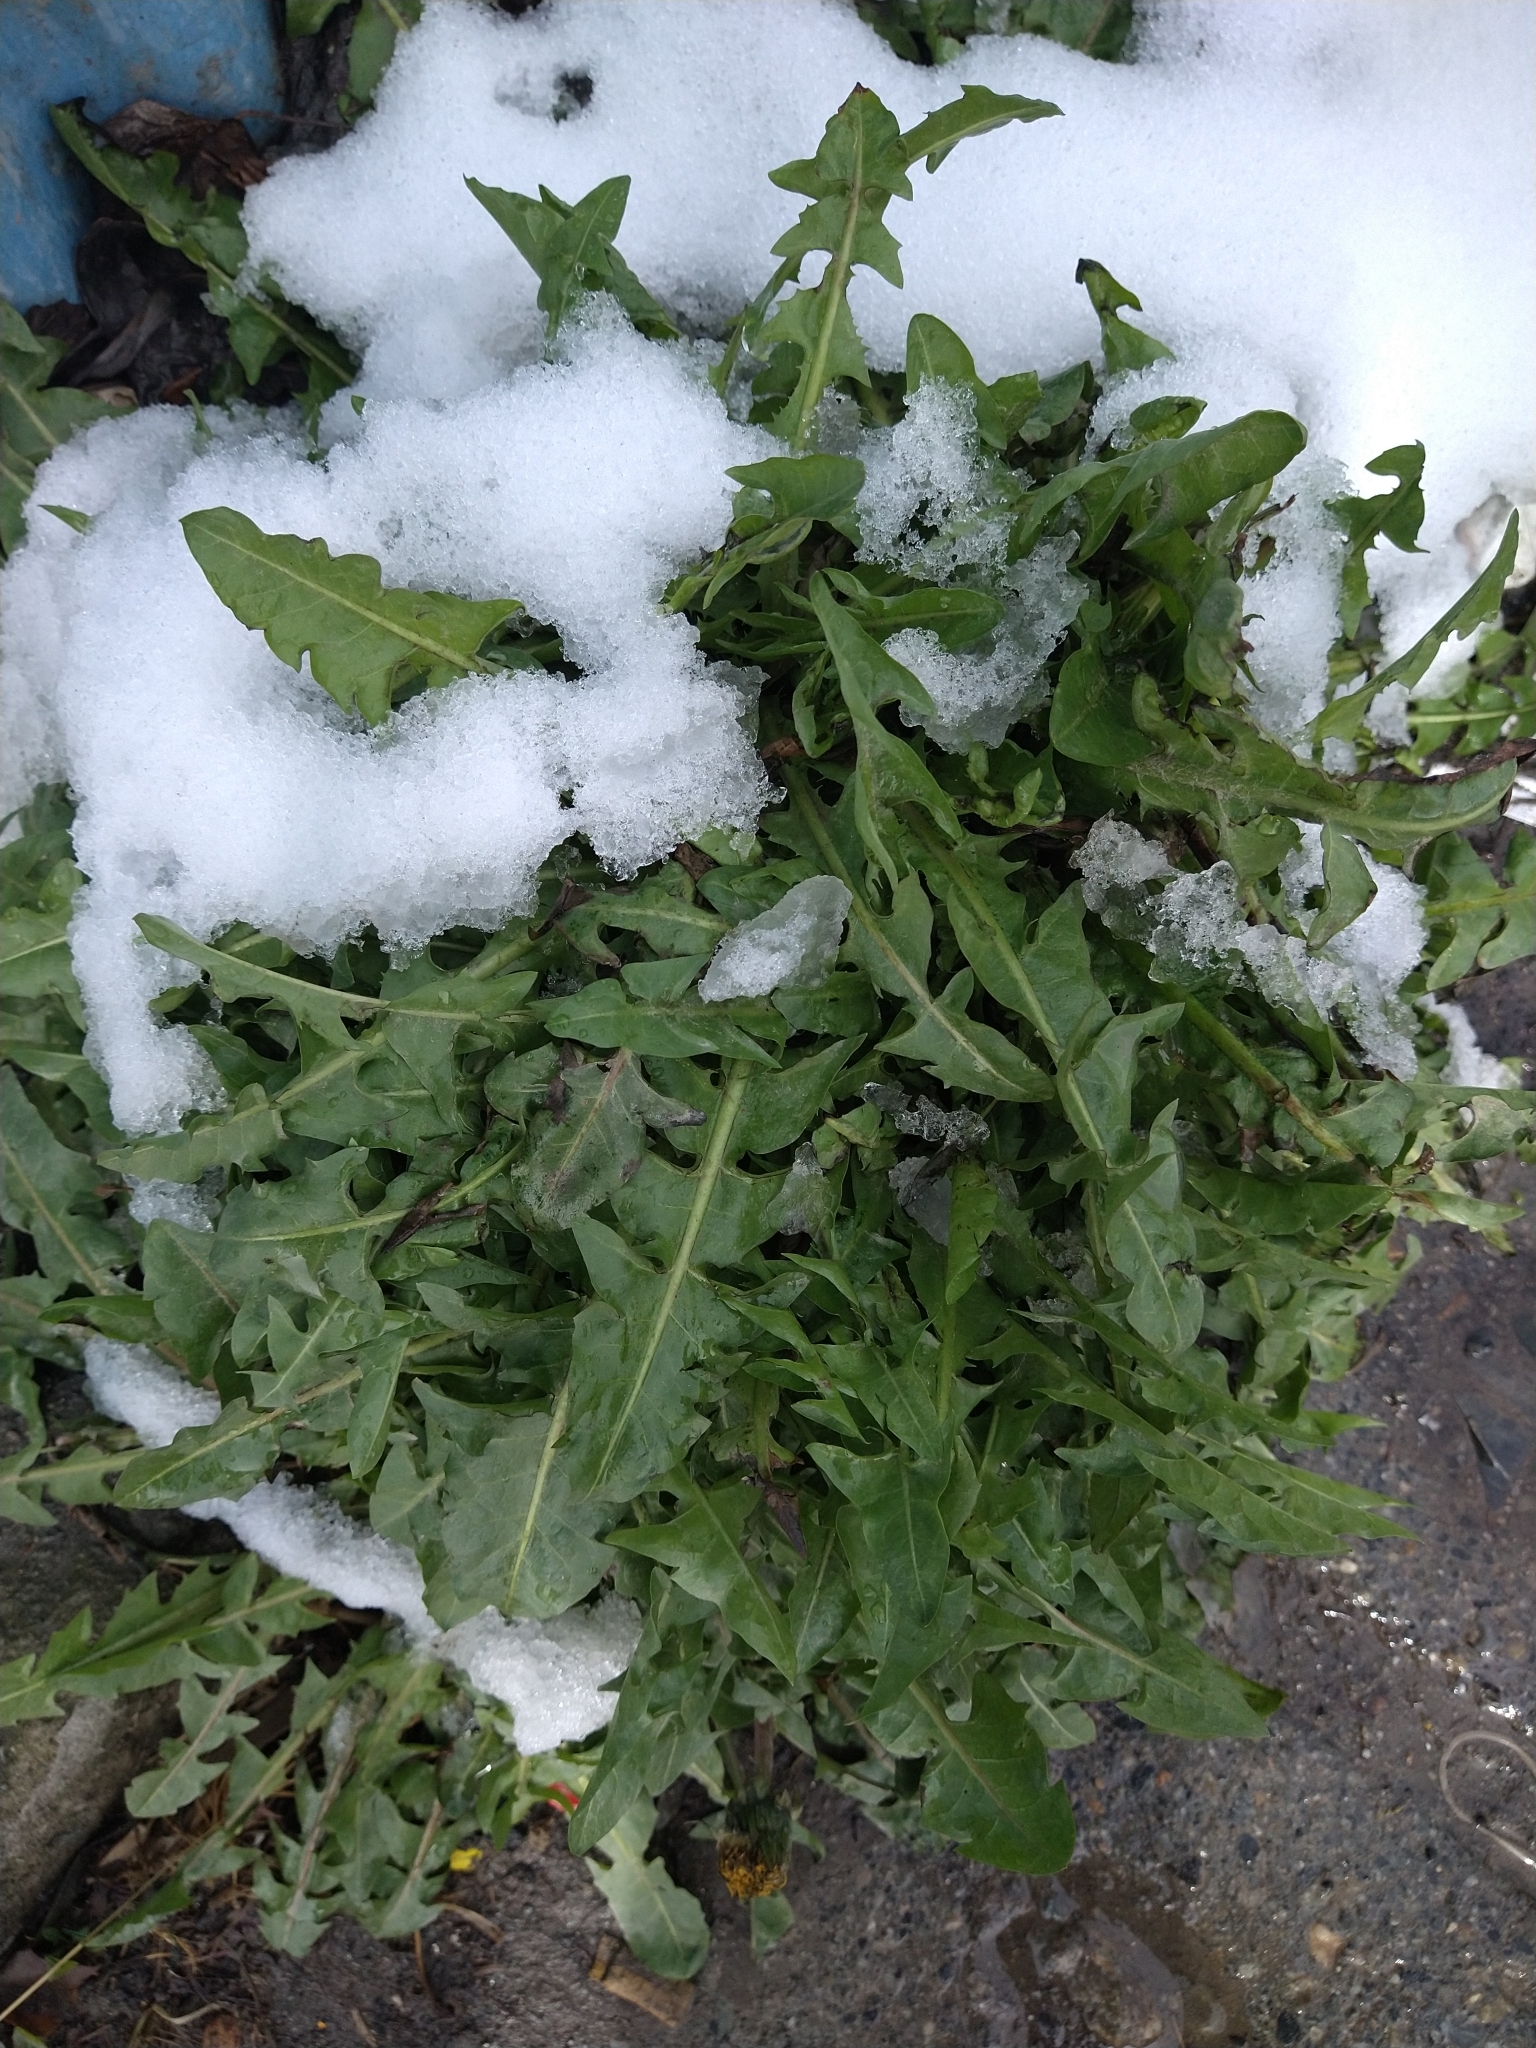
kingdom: Plantae
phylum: Tracheophyta
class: Magnoliopsida
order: Asterales
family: Asteraceae
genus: Taraxacum
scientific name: Taraxacum officinale
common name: Common dandelion
